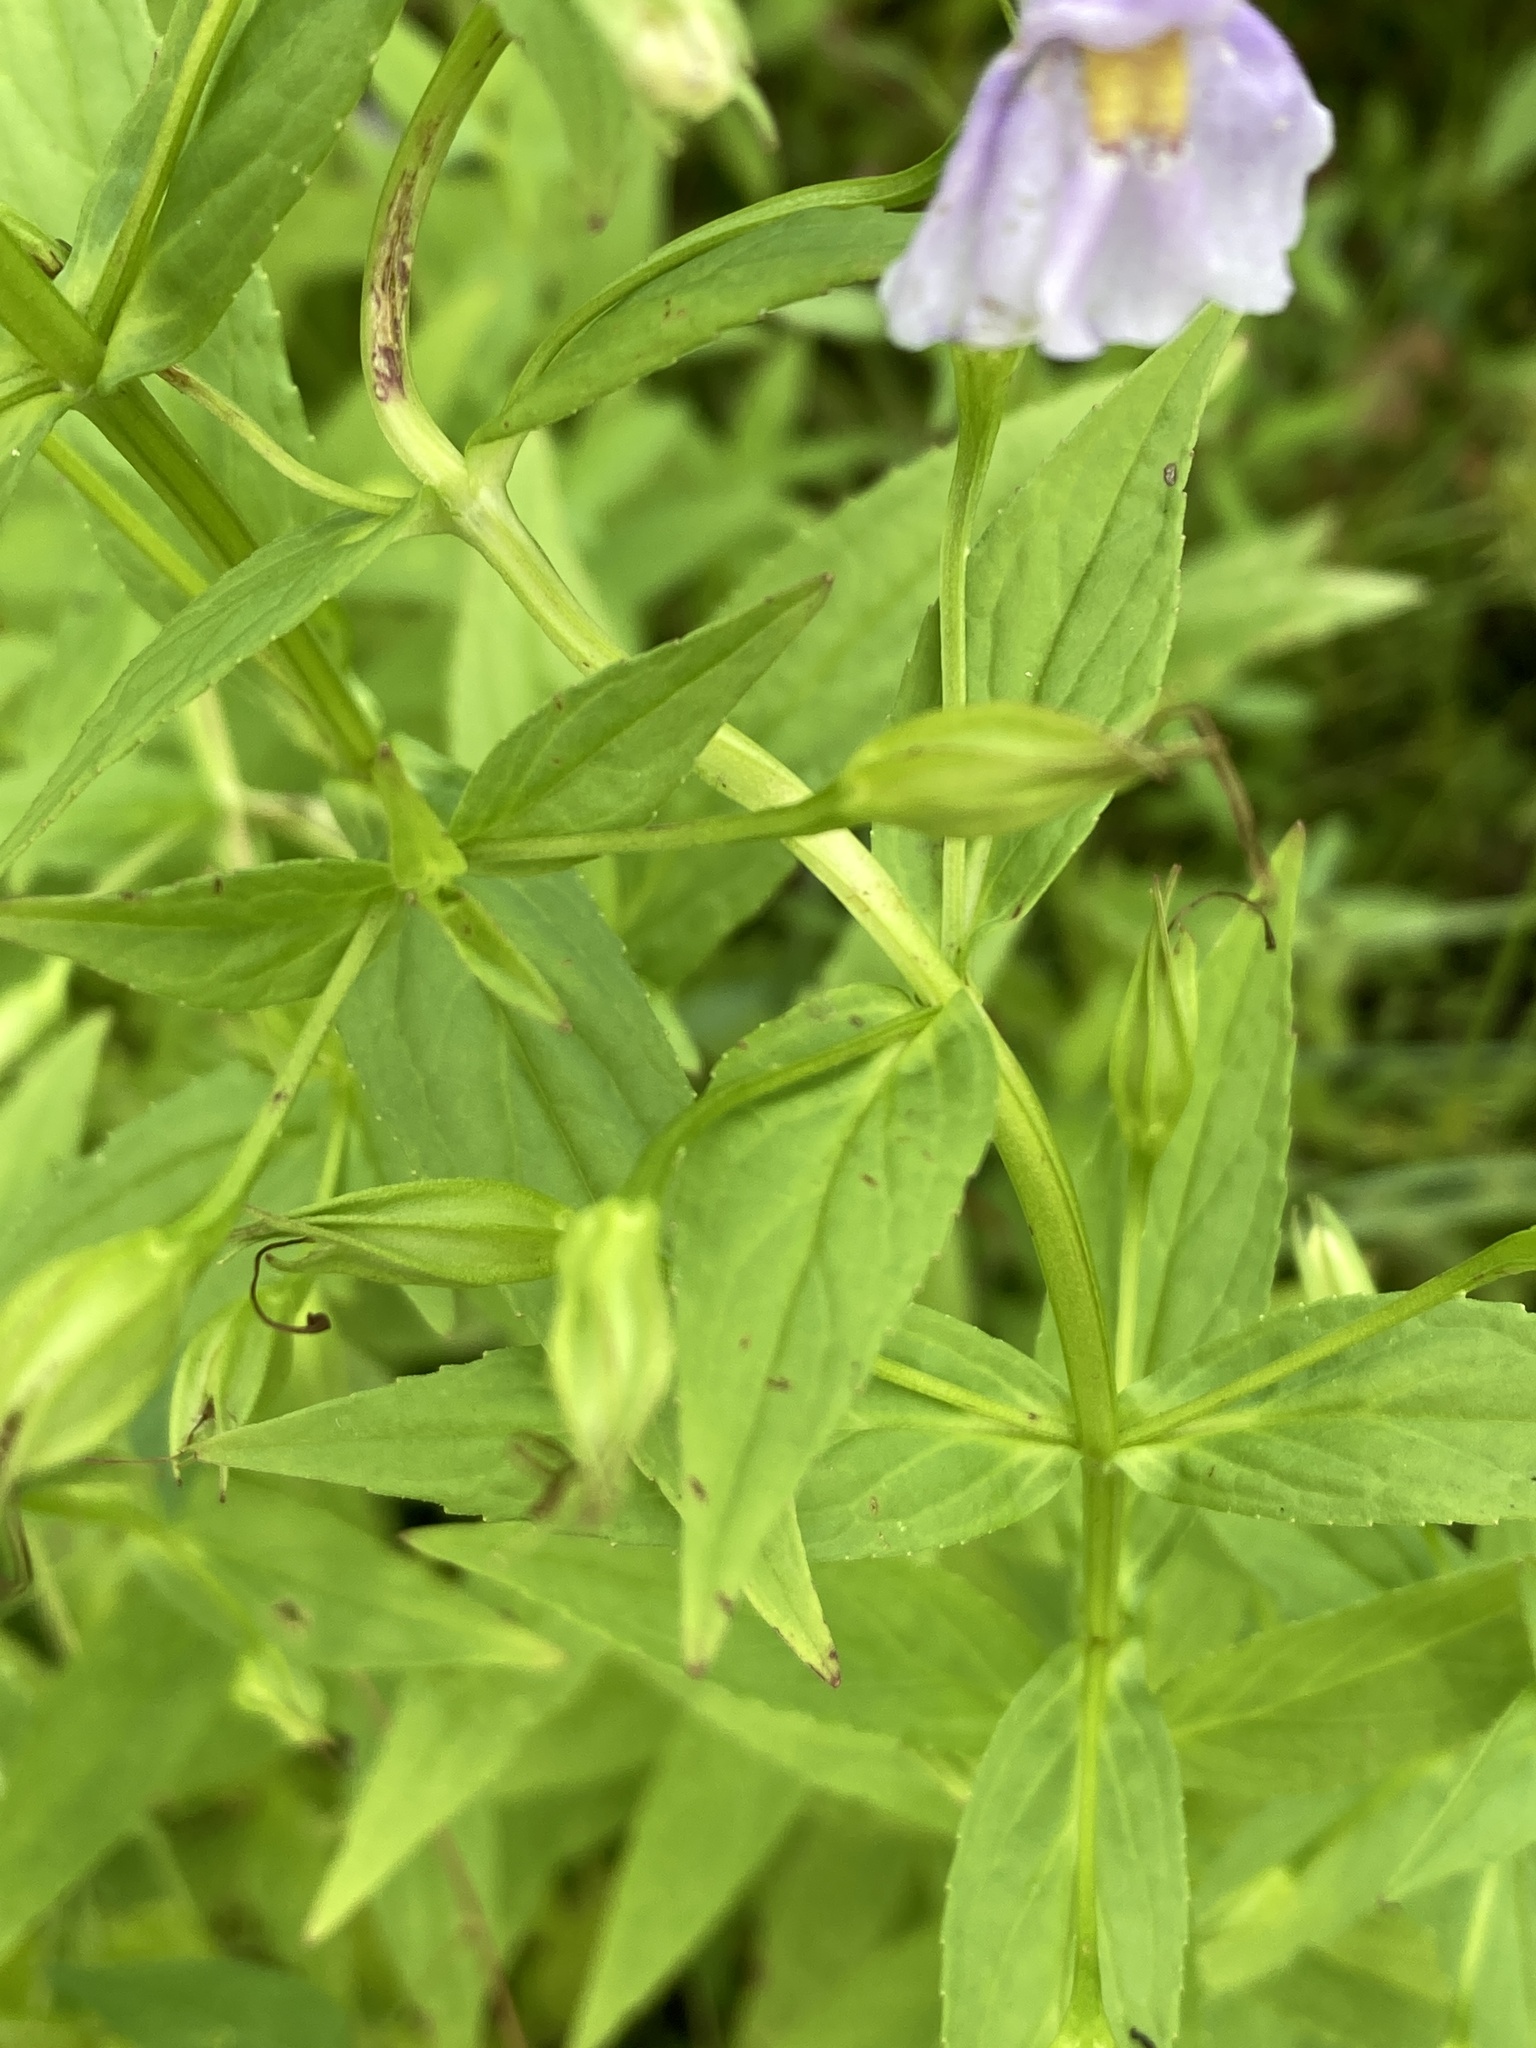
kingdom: Plantae
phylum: Tracheophyta
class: Magnoliopsida
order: Lamiales
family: Phrymaceae
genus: Mimulus
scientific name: Mimulus ringens
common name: Allegheny monkeyflower
